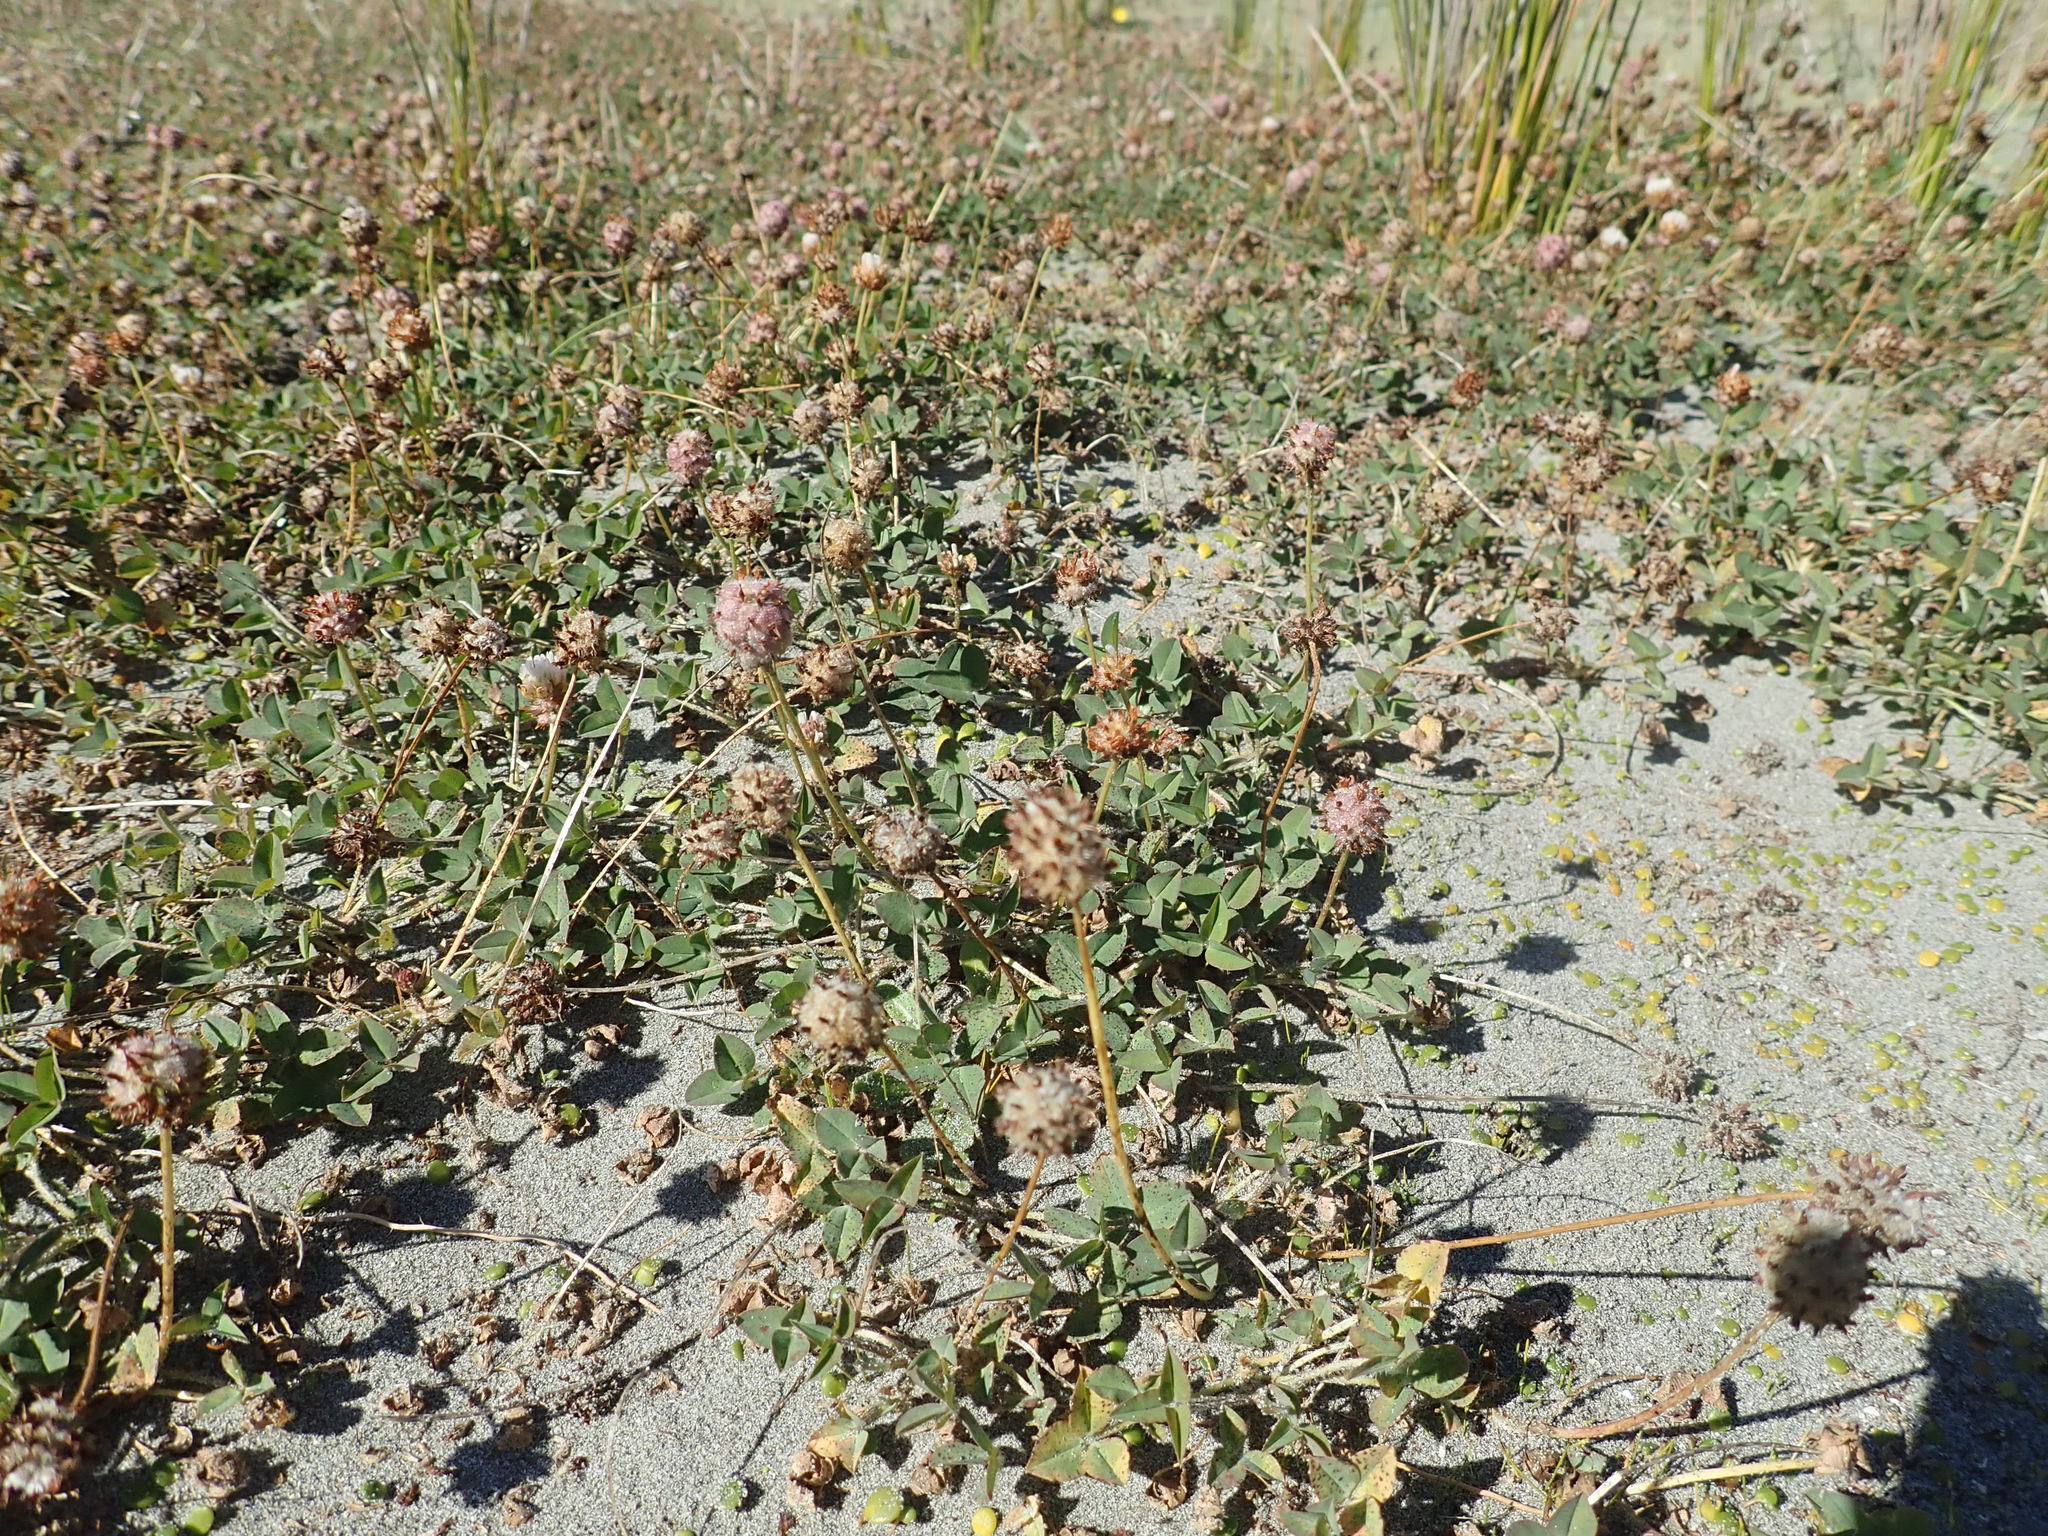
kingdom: Plantae
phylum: Tracheophyta
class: Magnoliopsida
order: Fabales
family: Fabaceae
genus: Trifolium
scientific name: Trifolium fragiferum
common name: Strawberry clover
